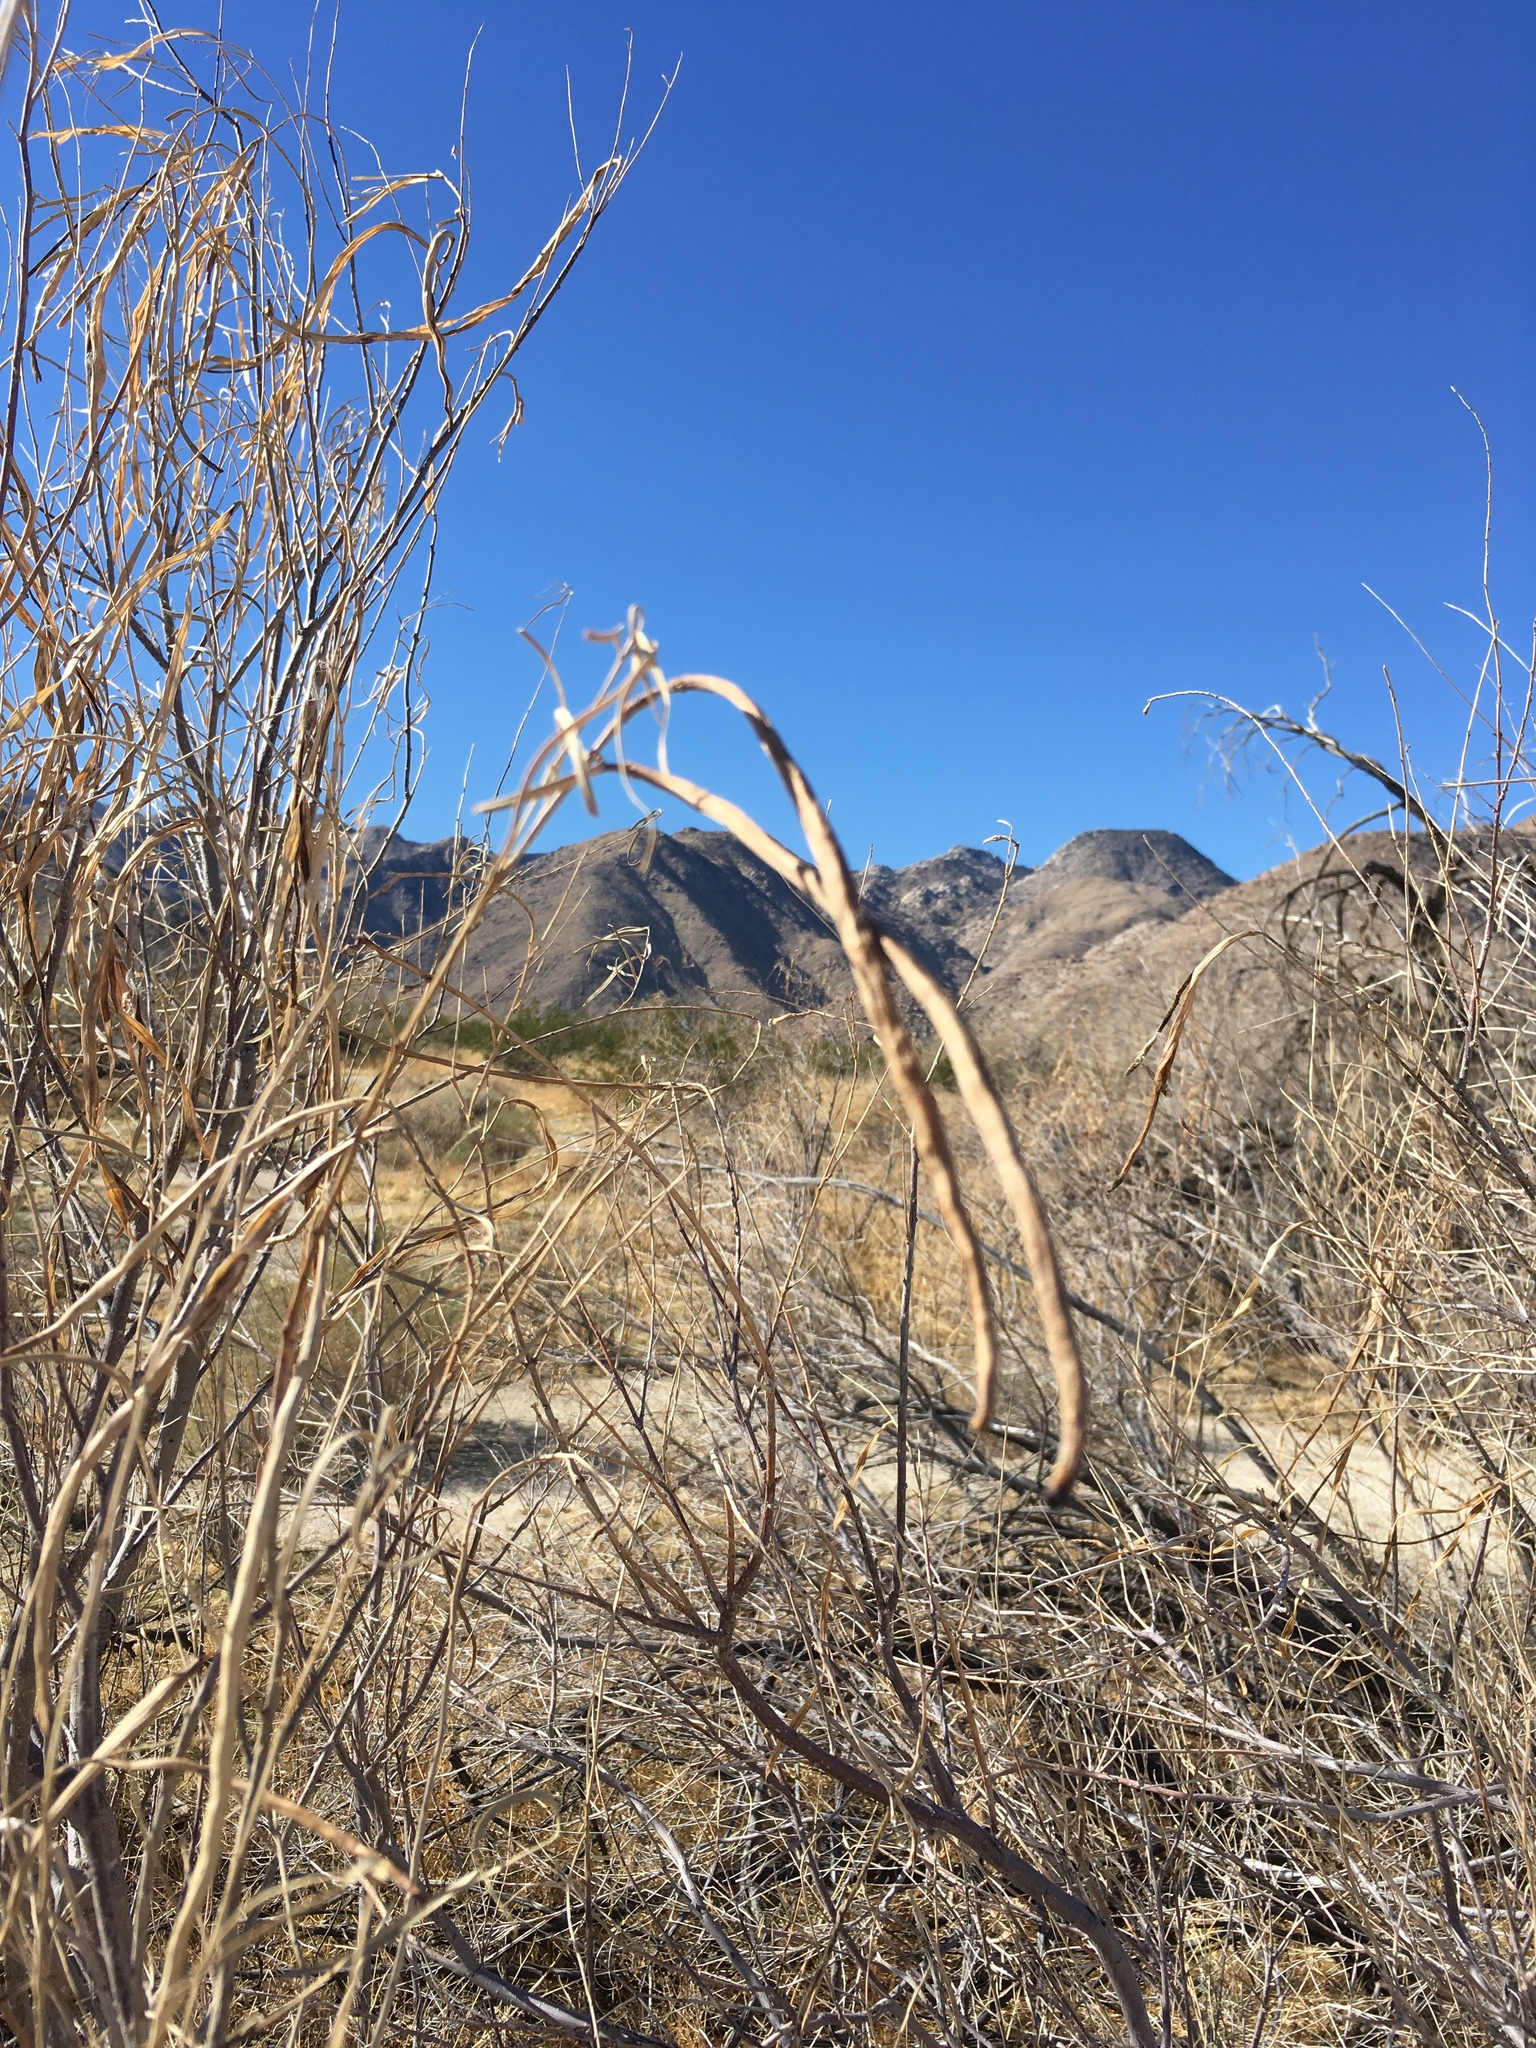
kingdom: Plantae
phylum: Tracheophyta
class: Magnoliopsida
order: Lamiales
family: Bignoniaceae
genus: Chilopsis
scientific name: Chilopsis linearis
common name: Desert-willow
